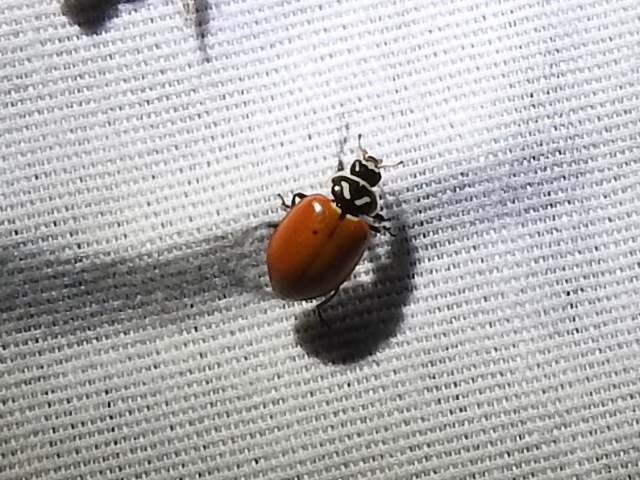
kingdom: Animalia
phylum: Arthropoda
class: Insecta
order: Coleoptera
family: Coccinellidae
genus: Hippodamia
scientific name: Hippodamia convergens
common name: Convergent lady beetle
